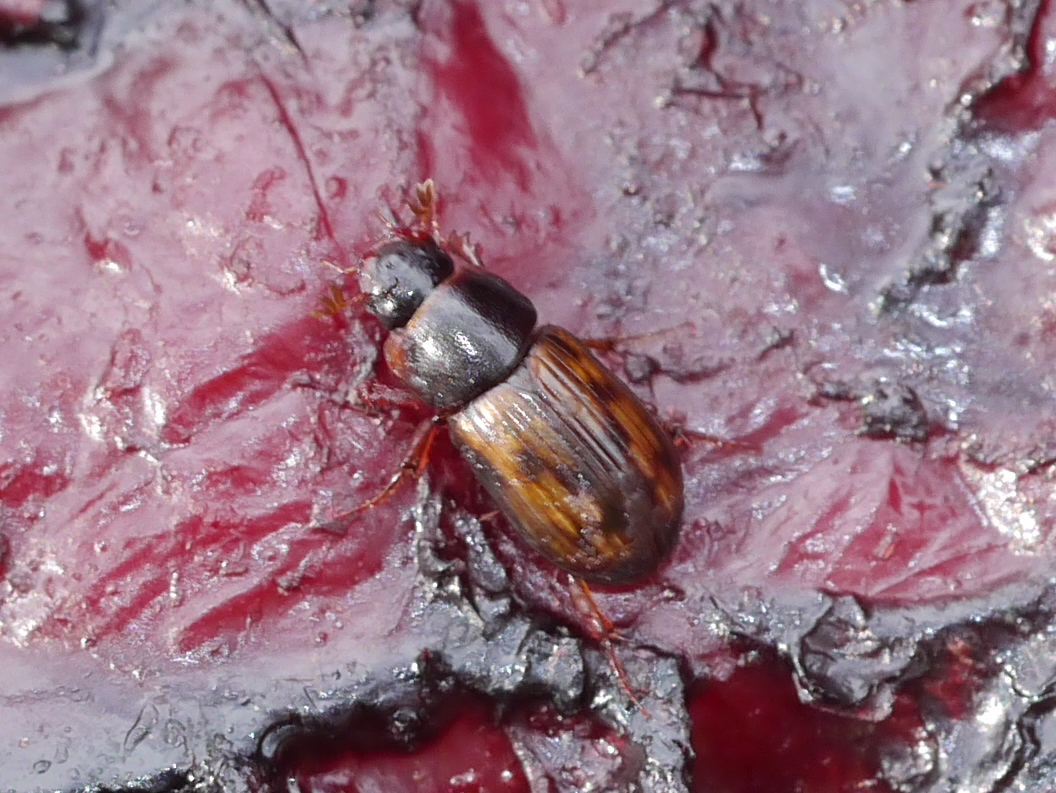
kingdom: Animalia
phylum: Arthropoda
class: Insecta
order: Coleoptera
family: Scarabaeidae
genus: Agoliinus
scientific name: Agoliinus congregatus
